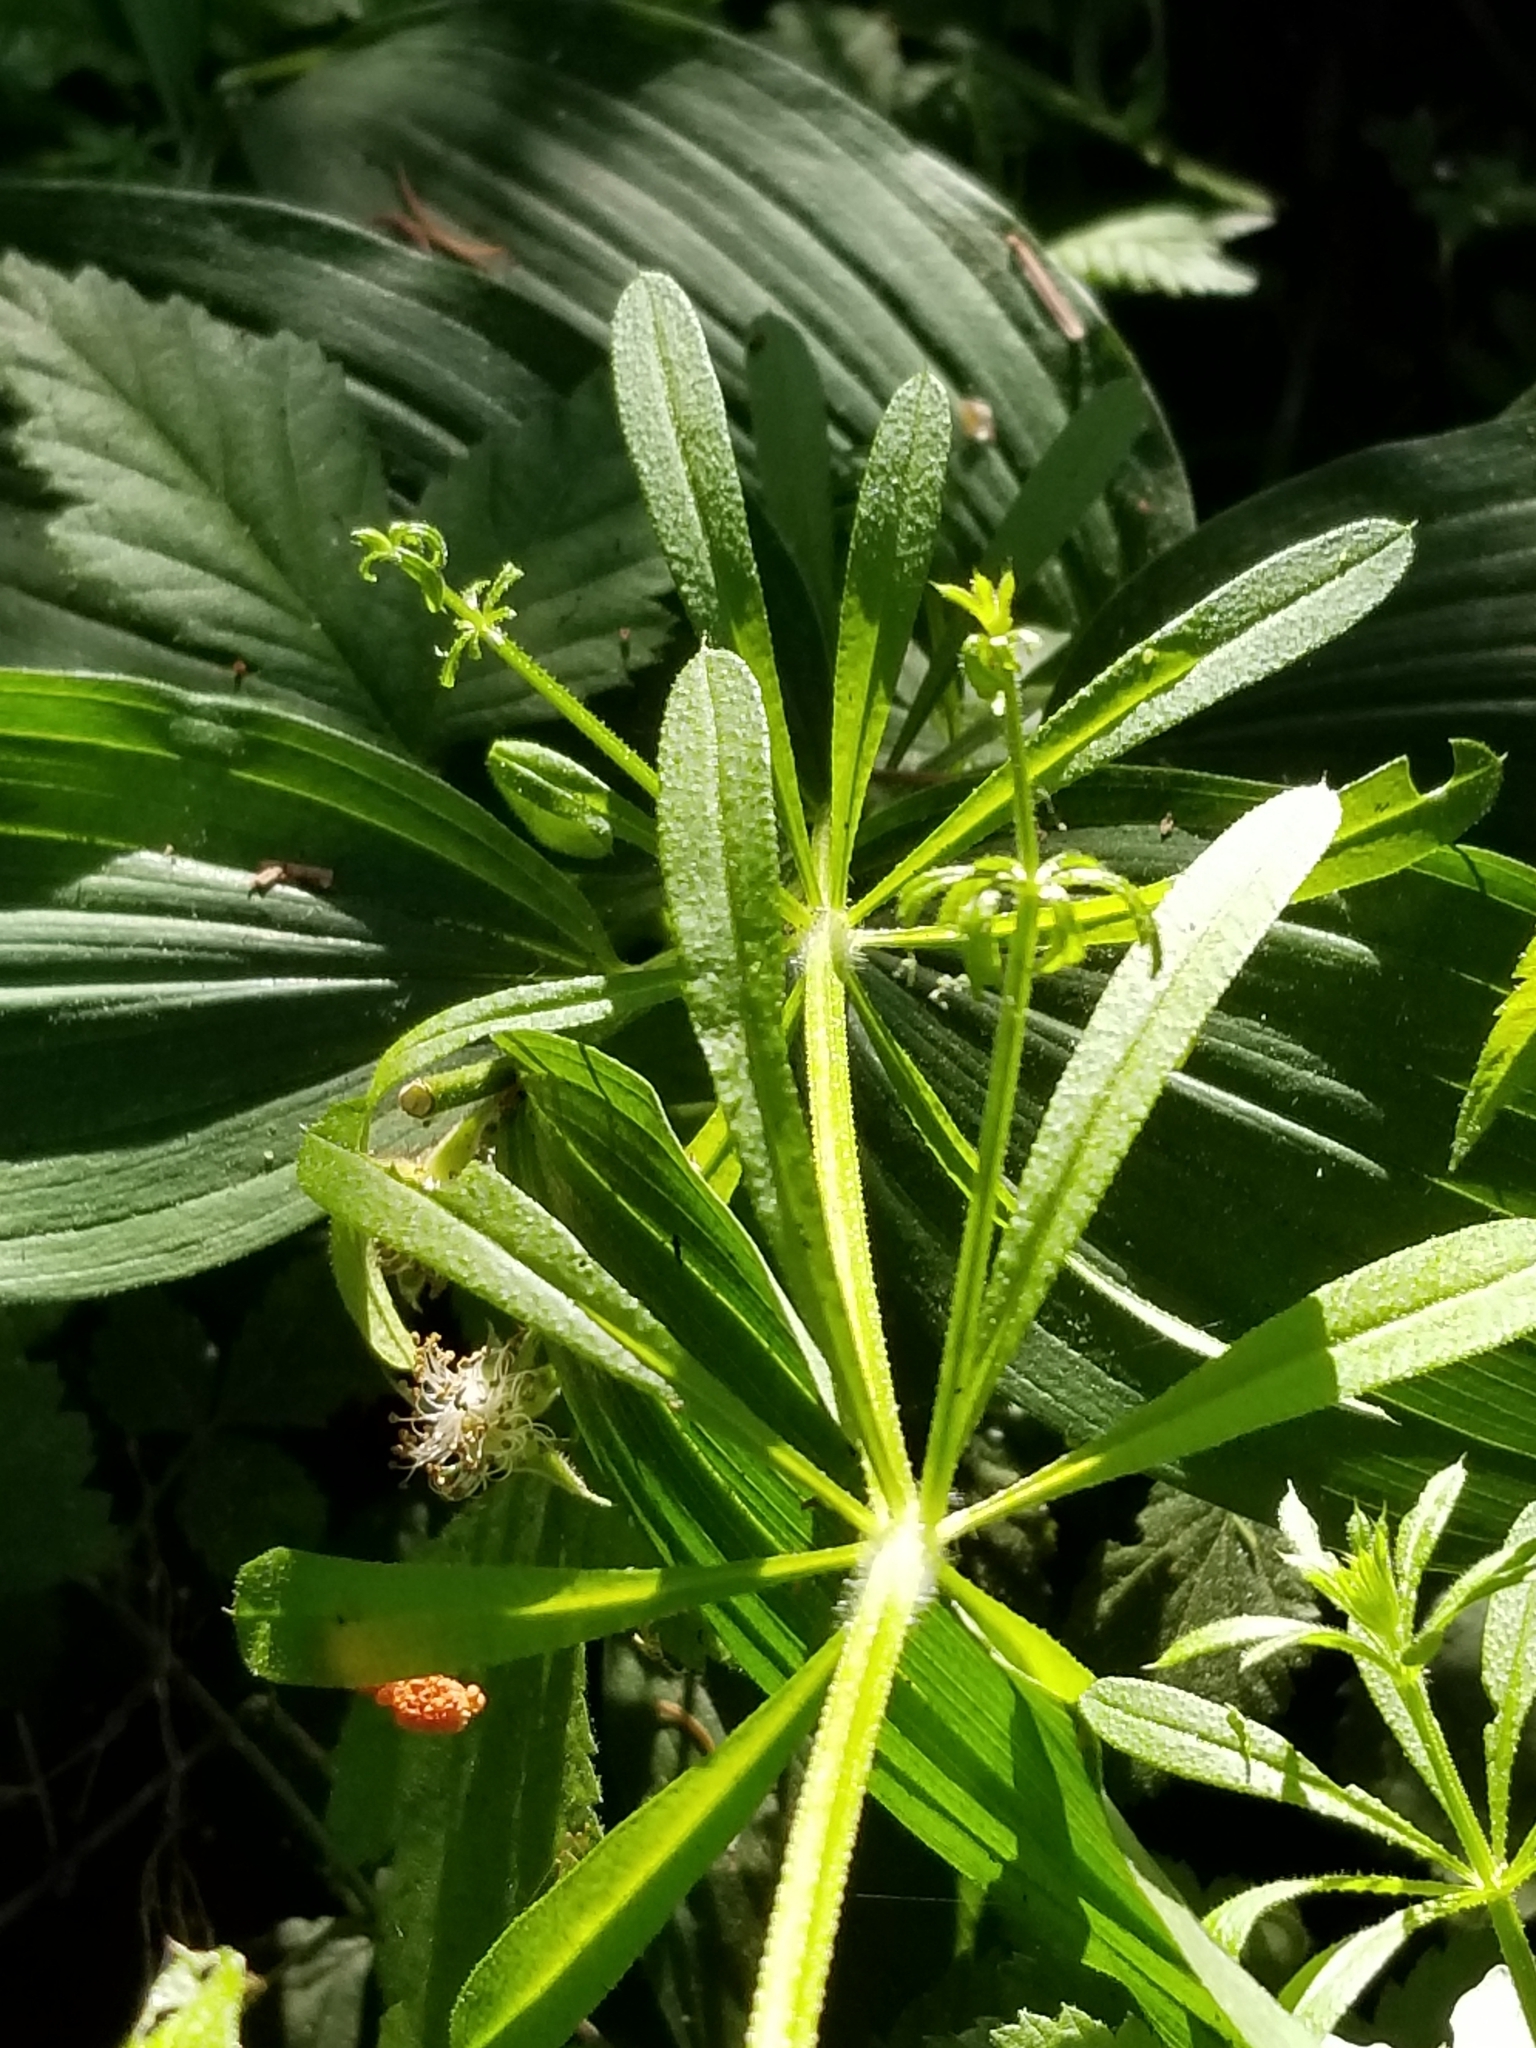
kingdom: Plantae
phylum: Tracheophyta
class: Magnoliopsida
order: Gentianales
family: Rubiaceae
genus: Galium
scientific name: Galium aparine
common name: Cleavers
